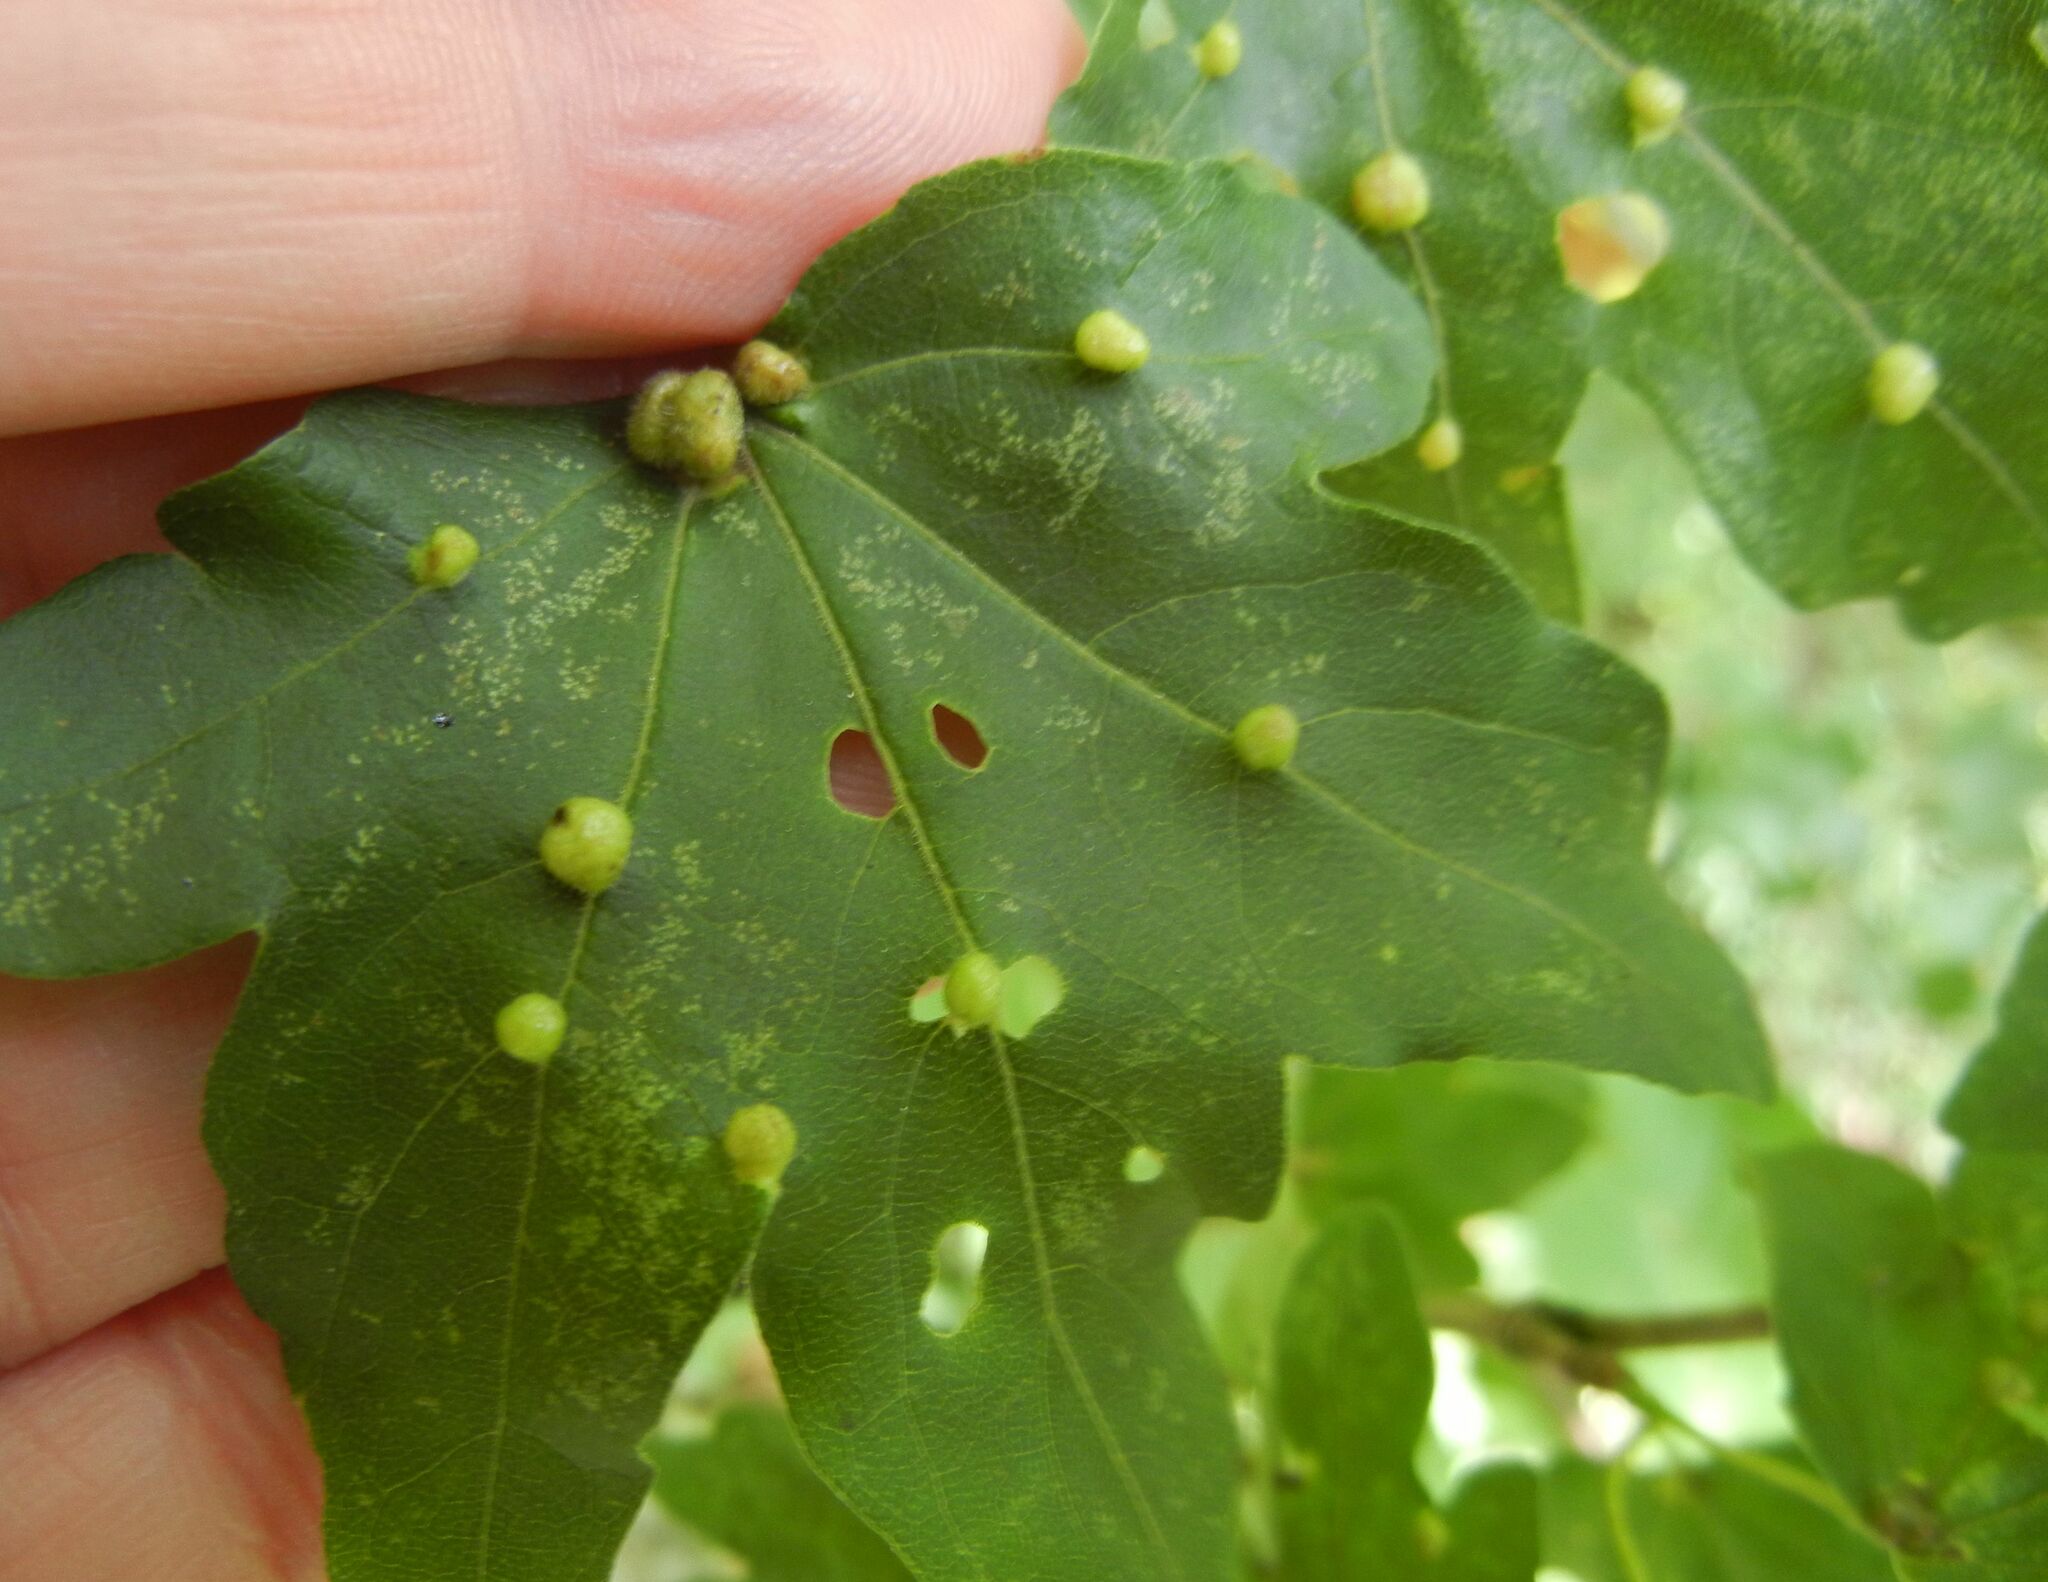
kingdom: Animalia
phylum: Arthropoda
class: Arachnida
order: Trombidiformes
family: Eriophyidae
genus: Aceria
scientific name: Aceria macrochelus
